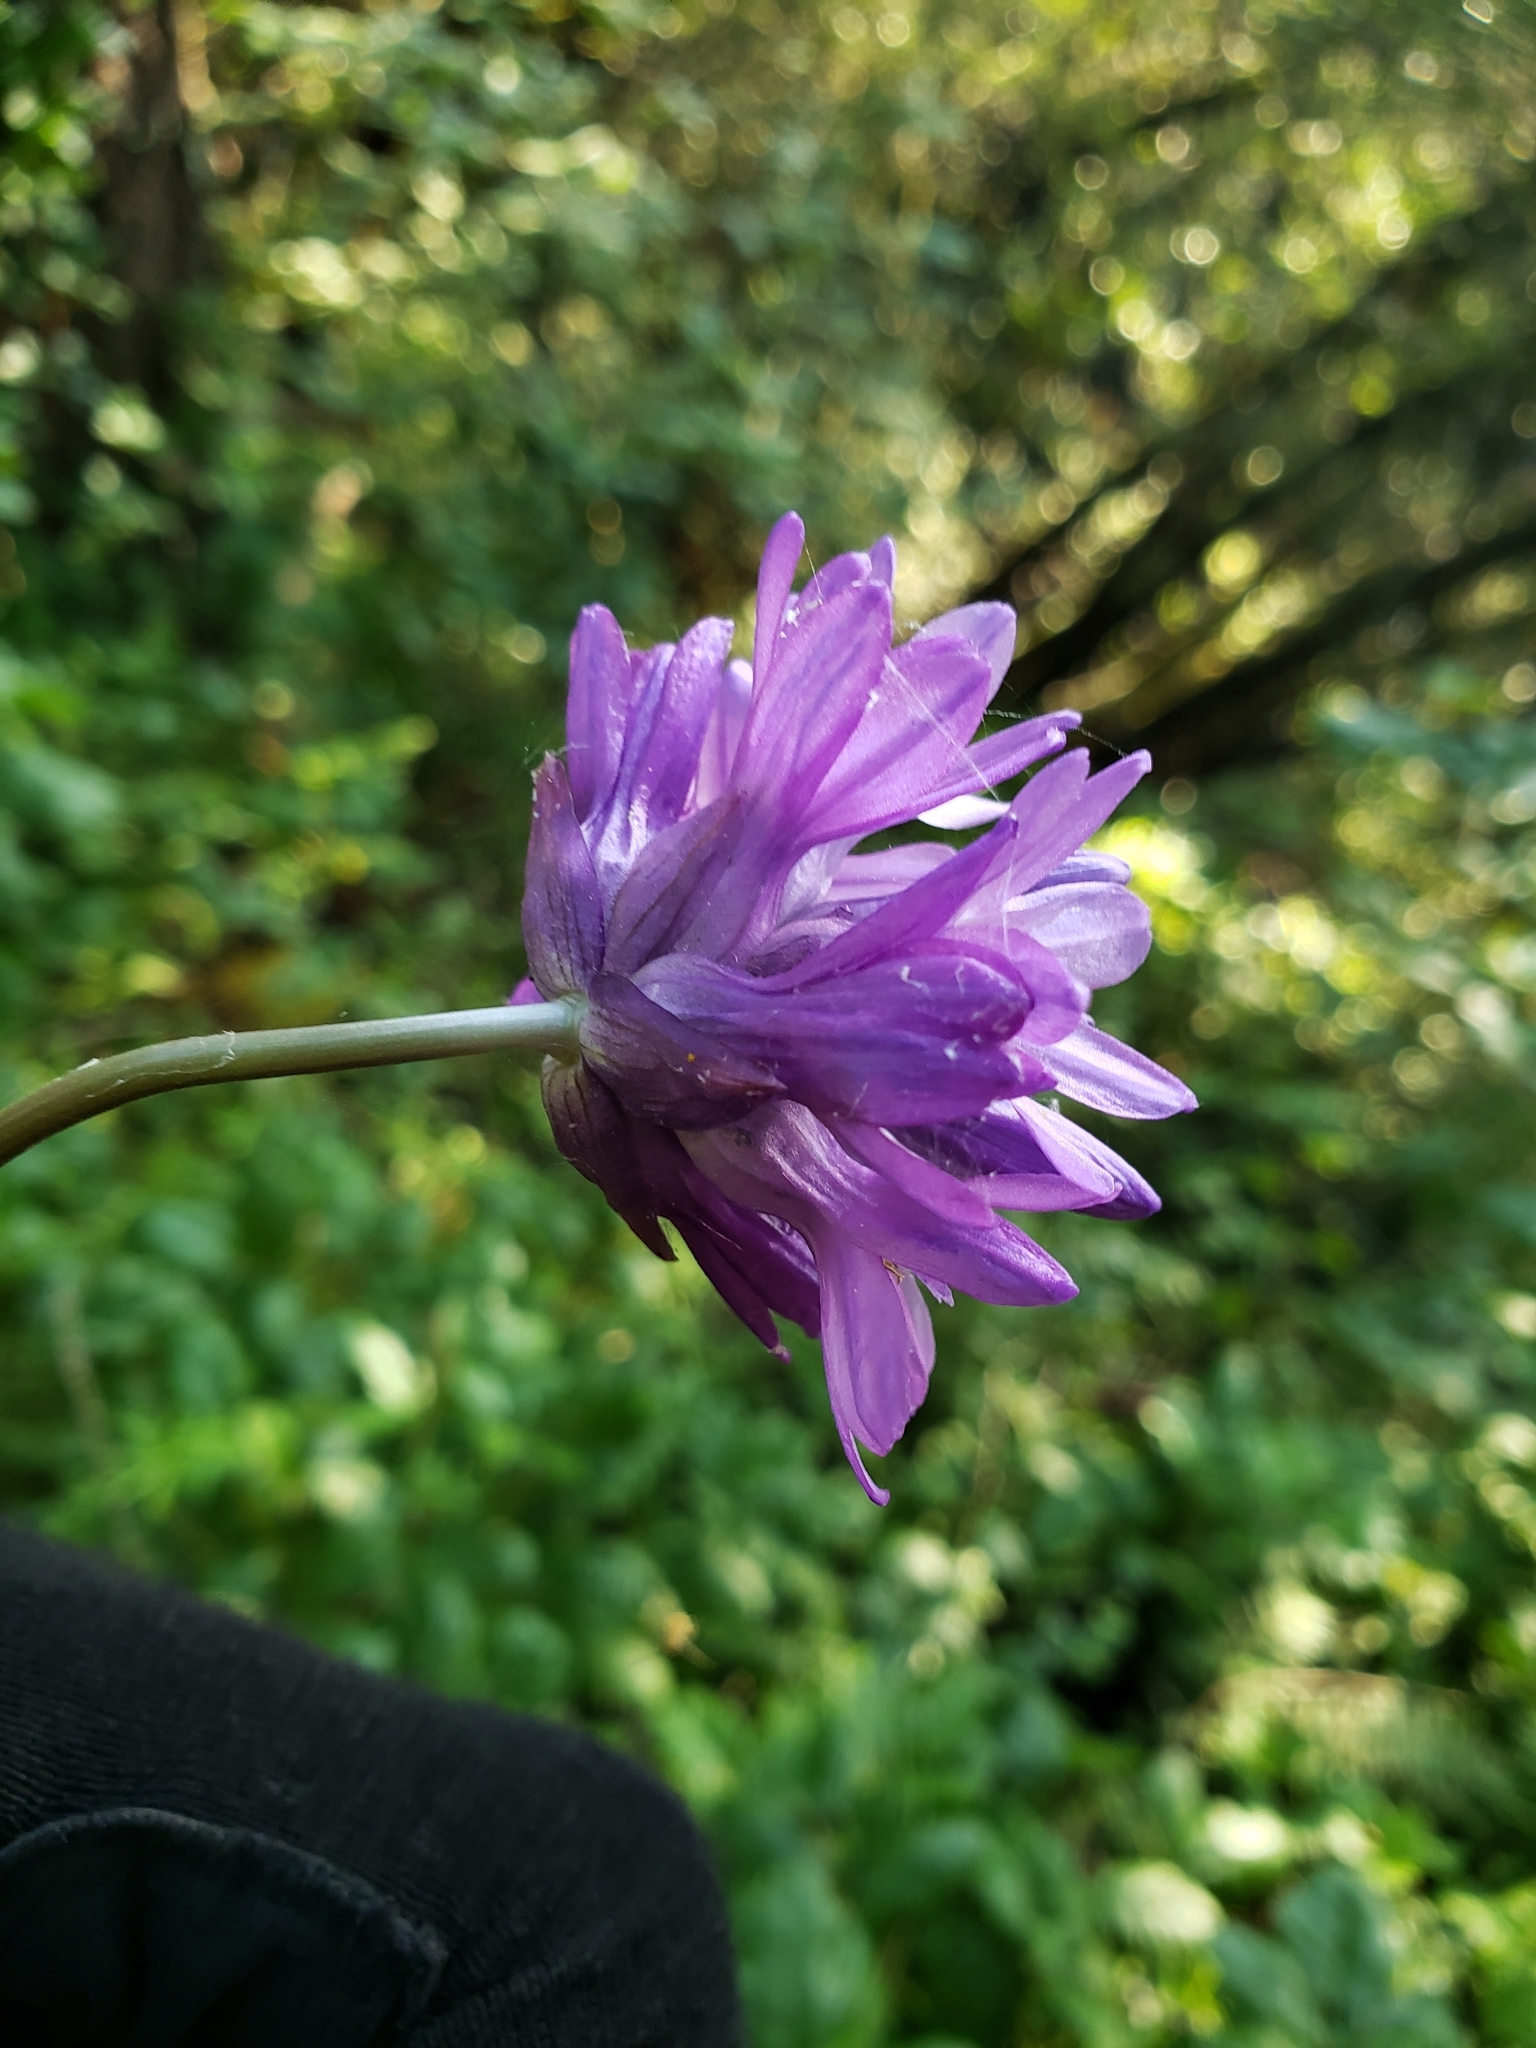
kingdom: Plantae
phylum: Tracheophyta
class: Liliopsida
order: Asparagales
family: Asparagaceae
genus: Dichelostemma
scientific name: Dichelostemma congestum
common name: Fork-tooth ookow
